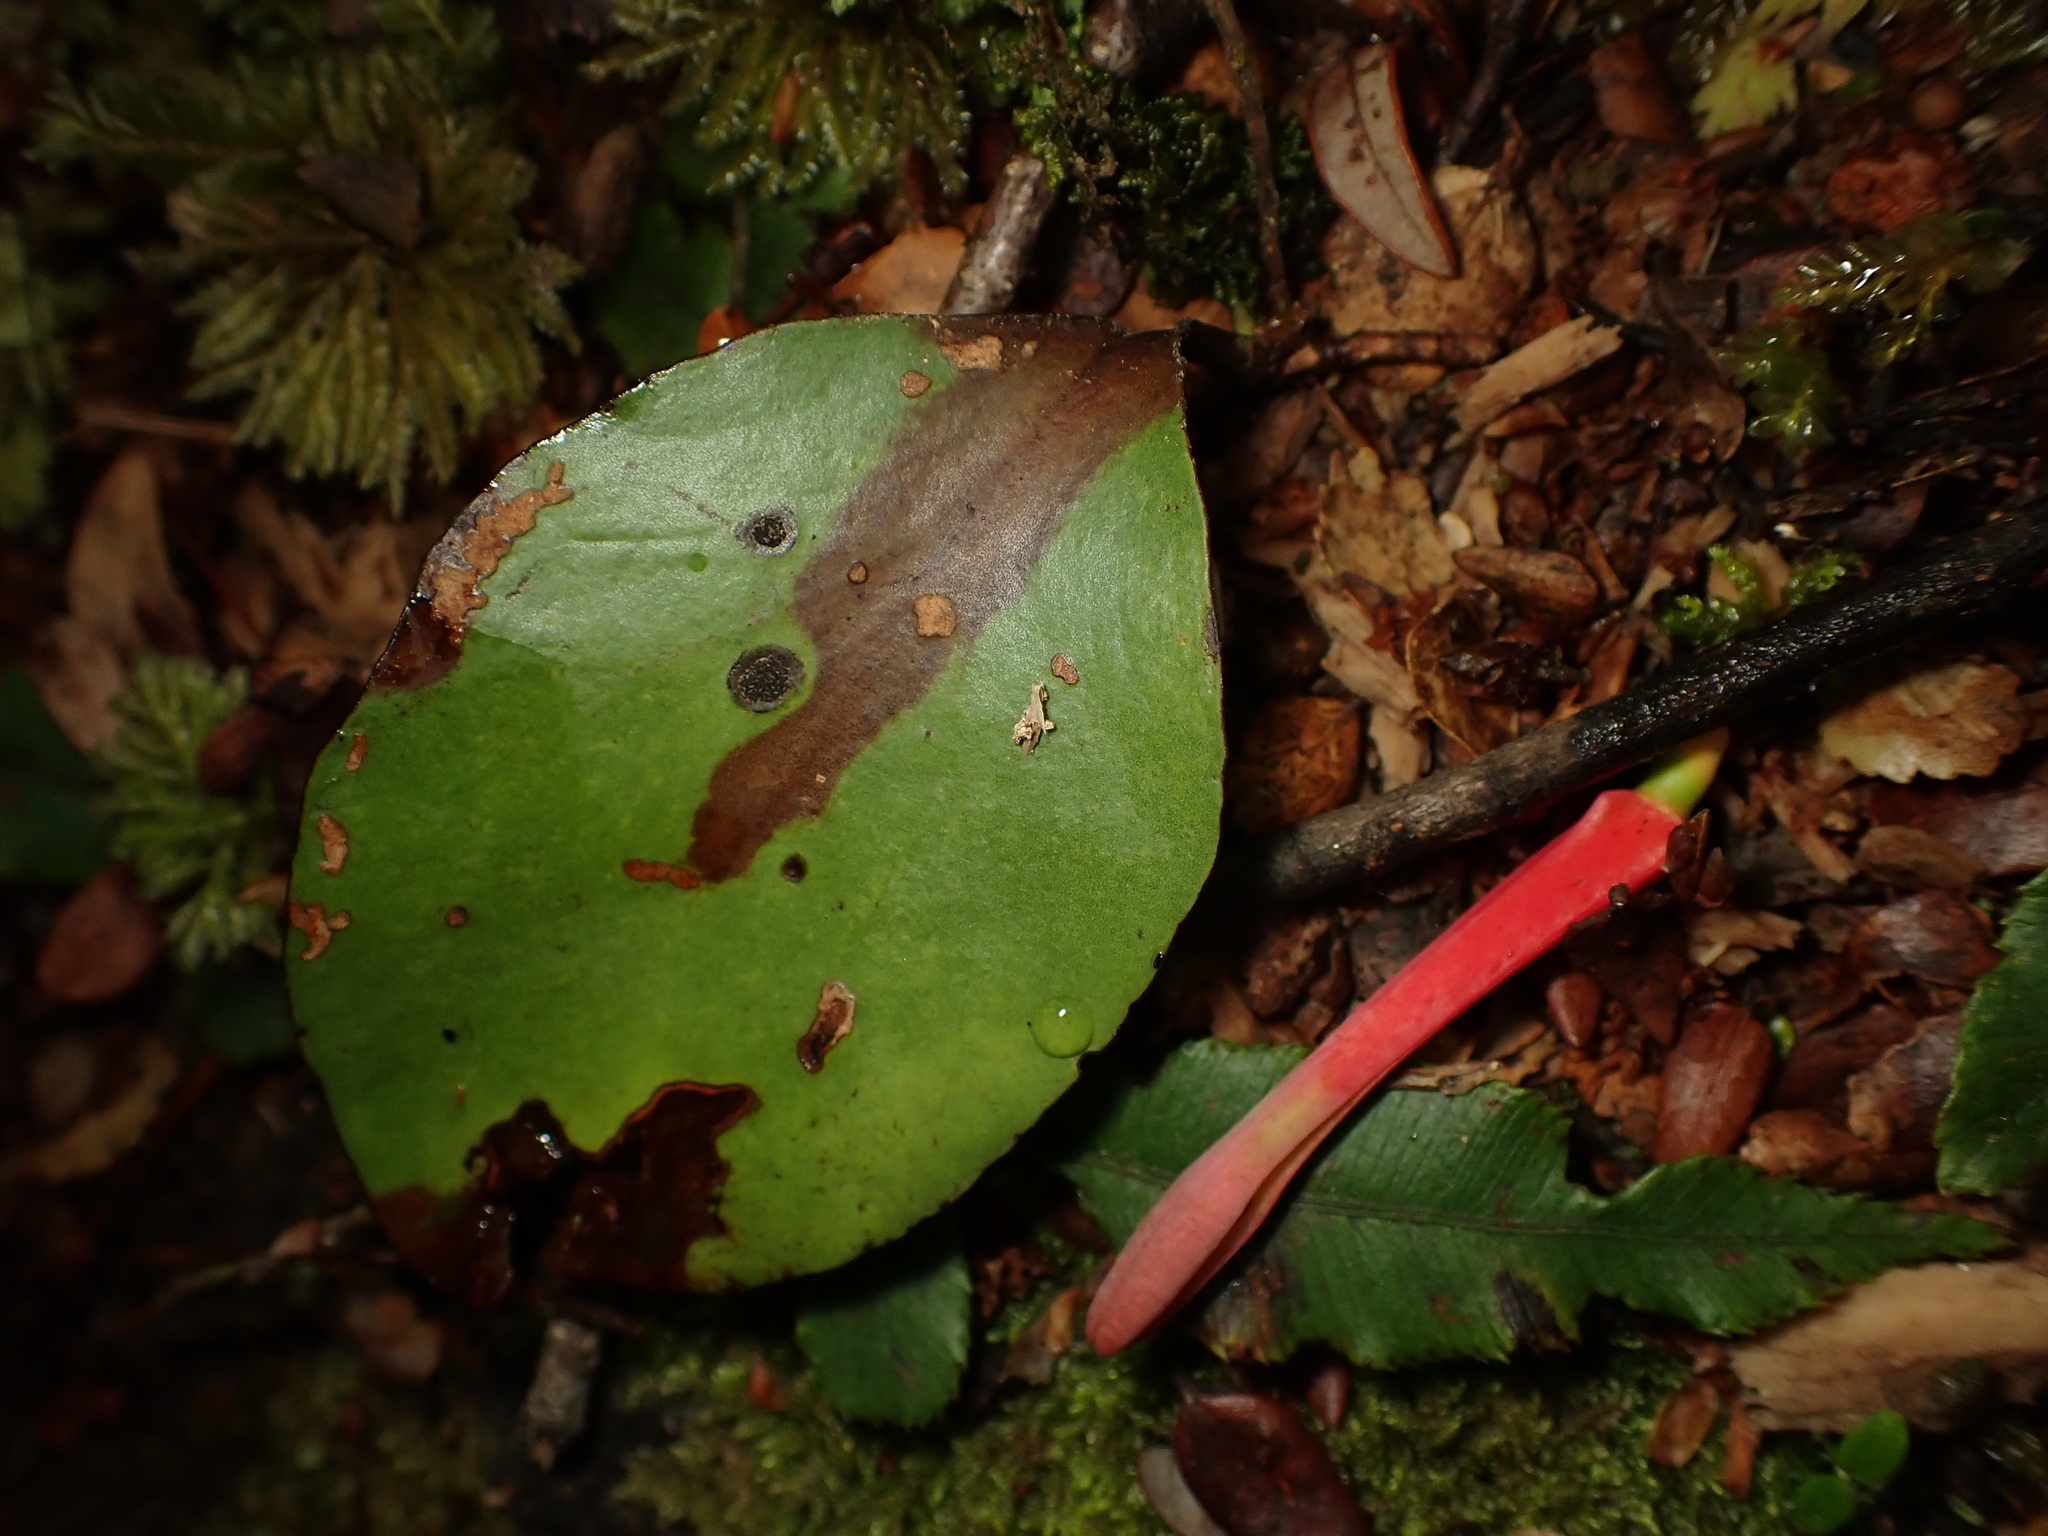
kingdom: Plantae
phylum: Tracheophyta
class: Magnoliopsida
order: Santalales
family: Loranthaceae
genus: Peraxilla
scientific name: Peraxilla colensoi
